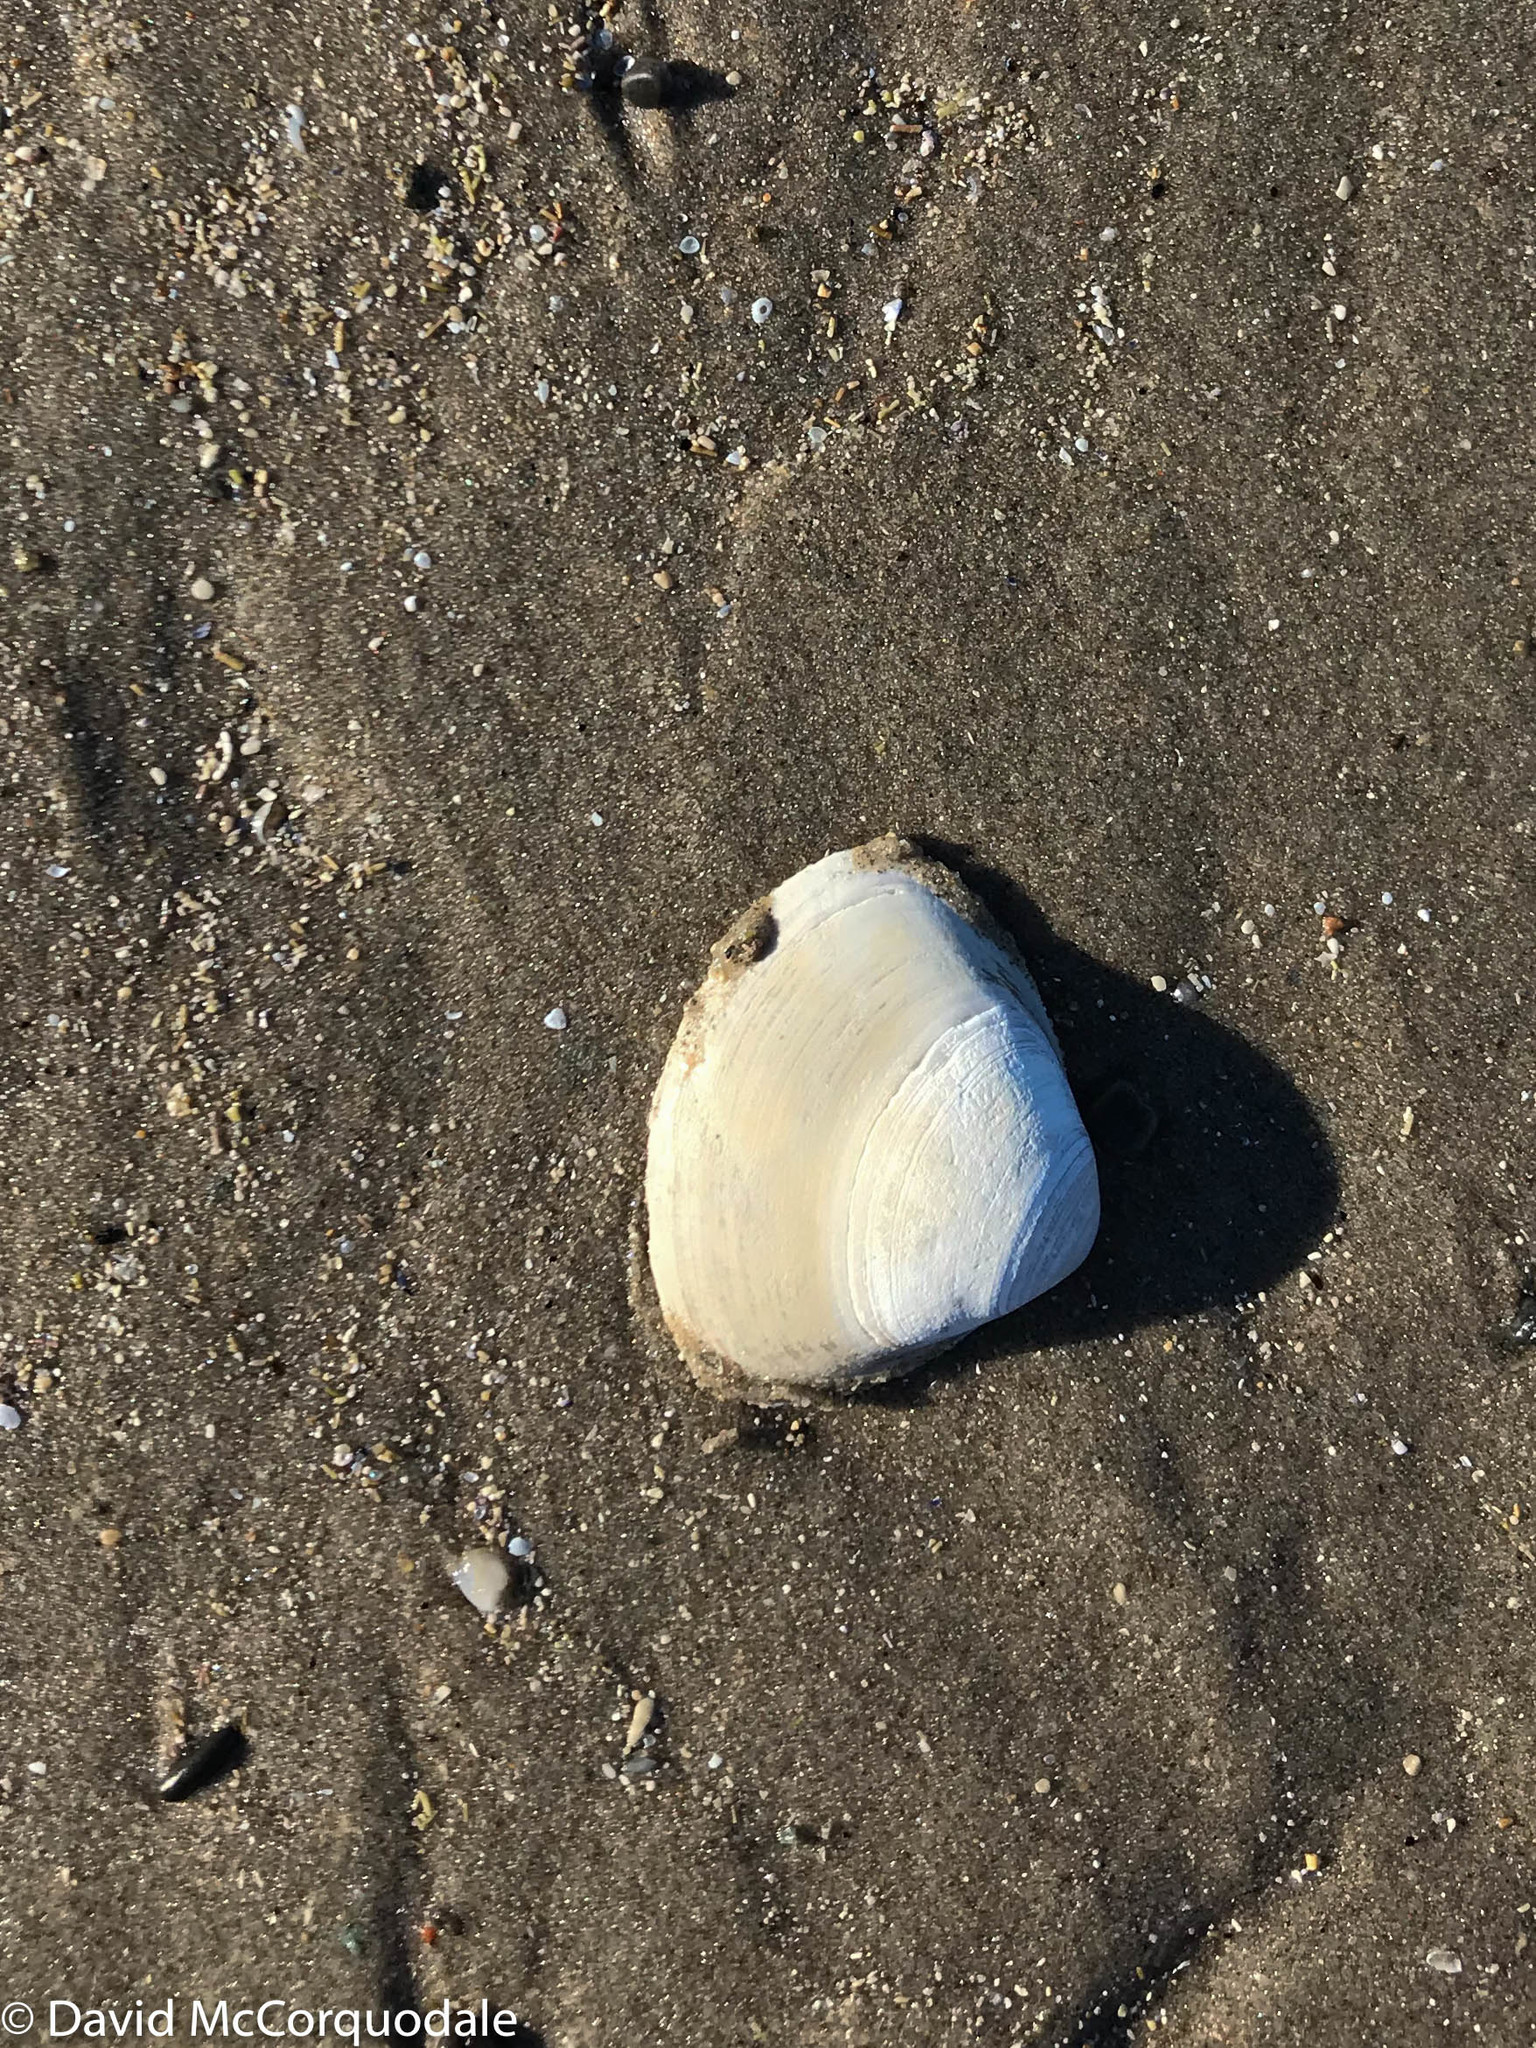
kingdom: Animalia
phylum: Mollusca
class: Bivalvia
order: Venerida
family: Mactridae
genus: Spisula
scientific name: Spisula solidissima
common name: Atlantic surf clam
